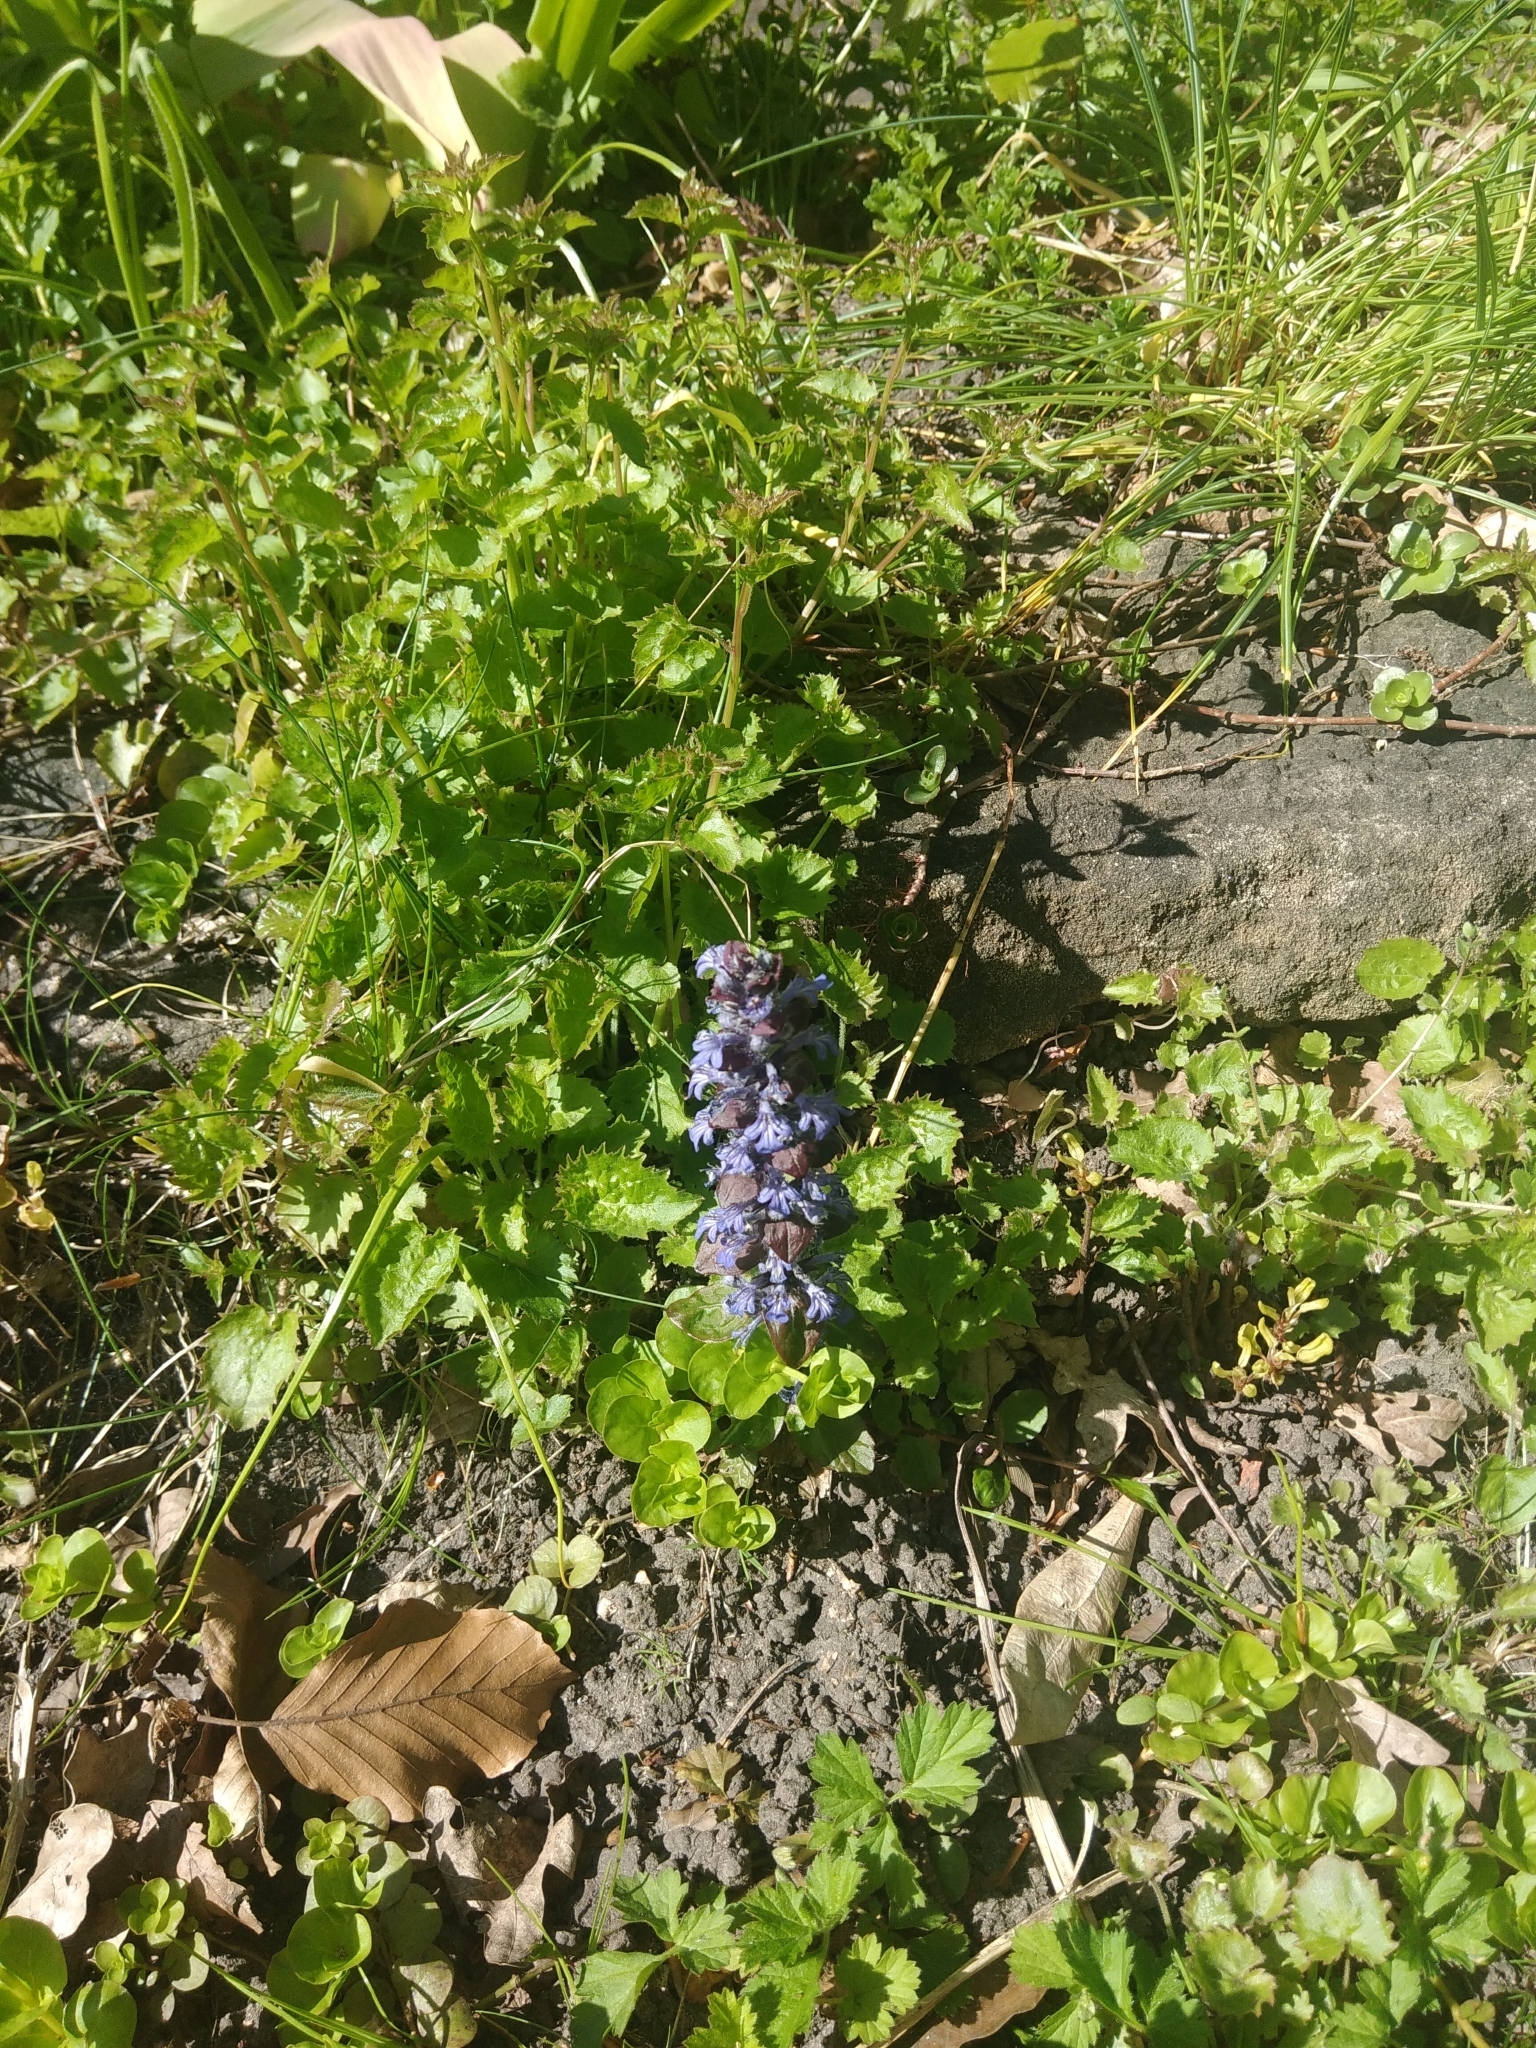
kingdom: Plantae
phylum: Tracheophyta
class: Magnoliopsida
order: Lamiales
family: Lamiaceae
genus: Ajuga
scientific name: Ajuga reptans
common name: Bugle
